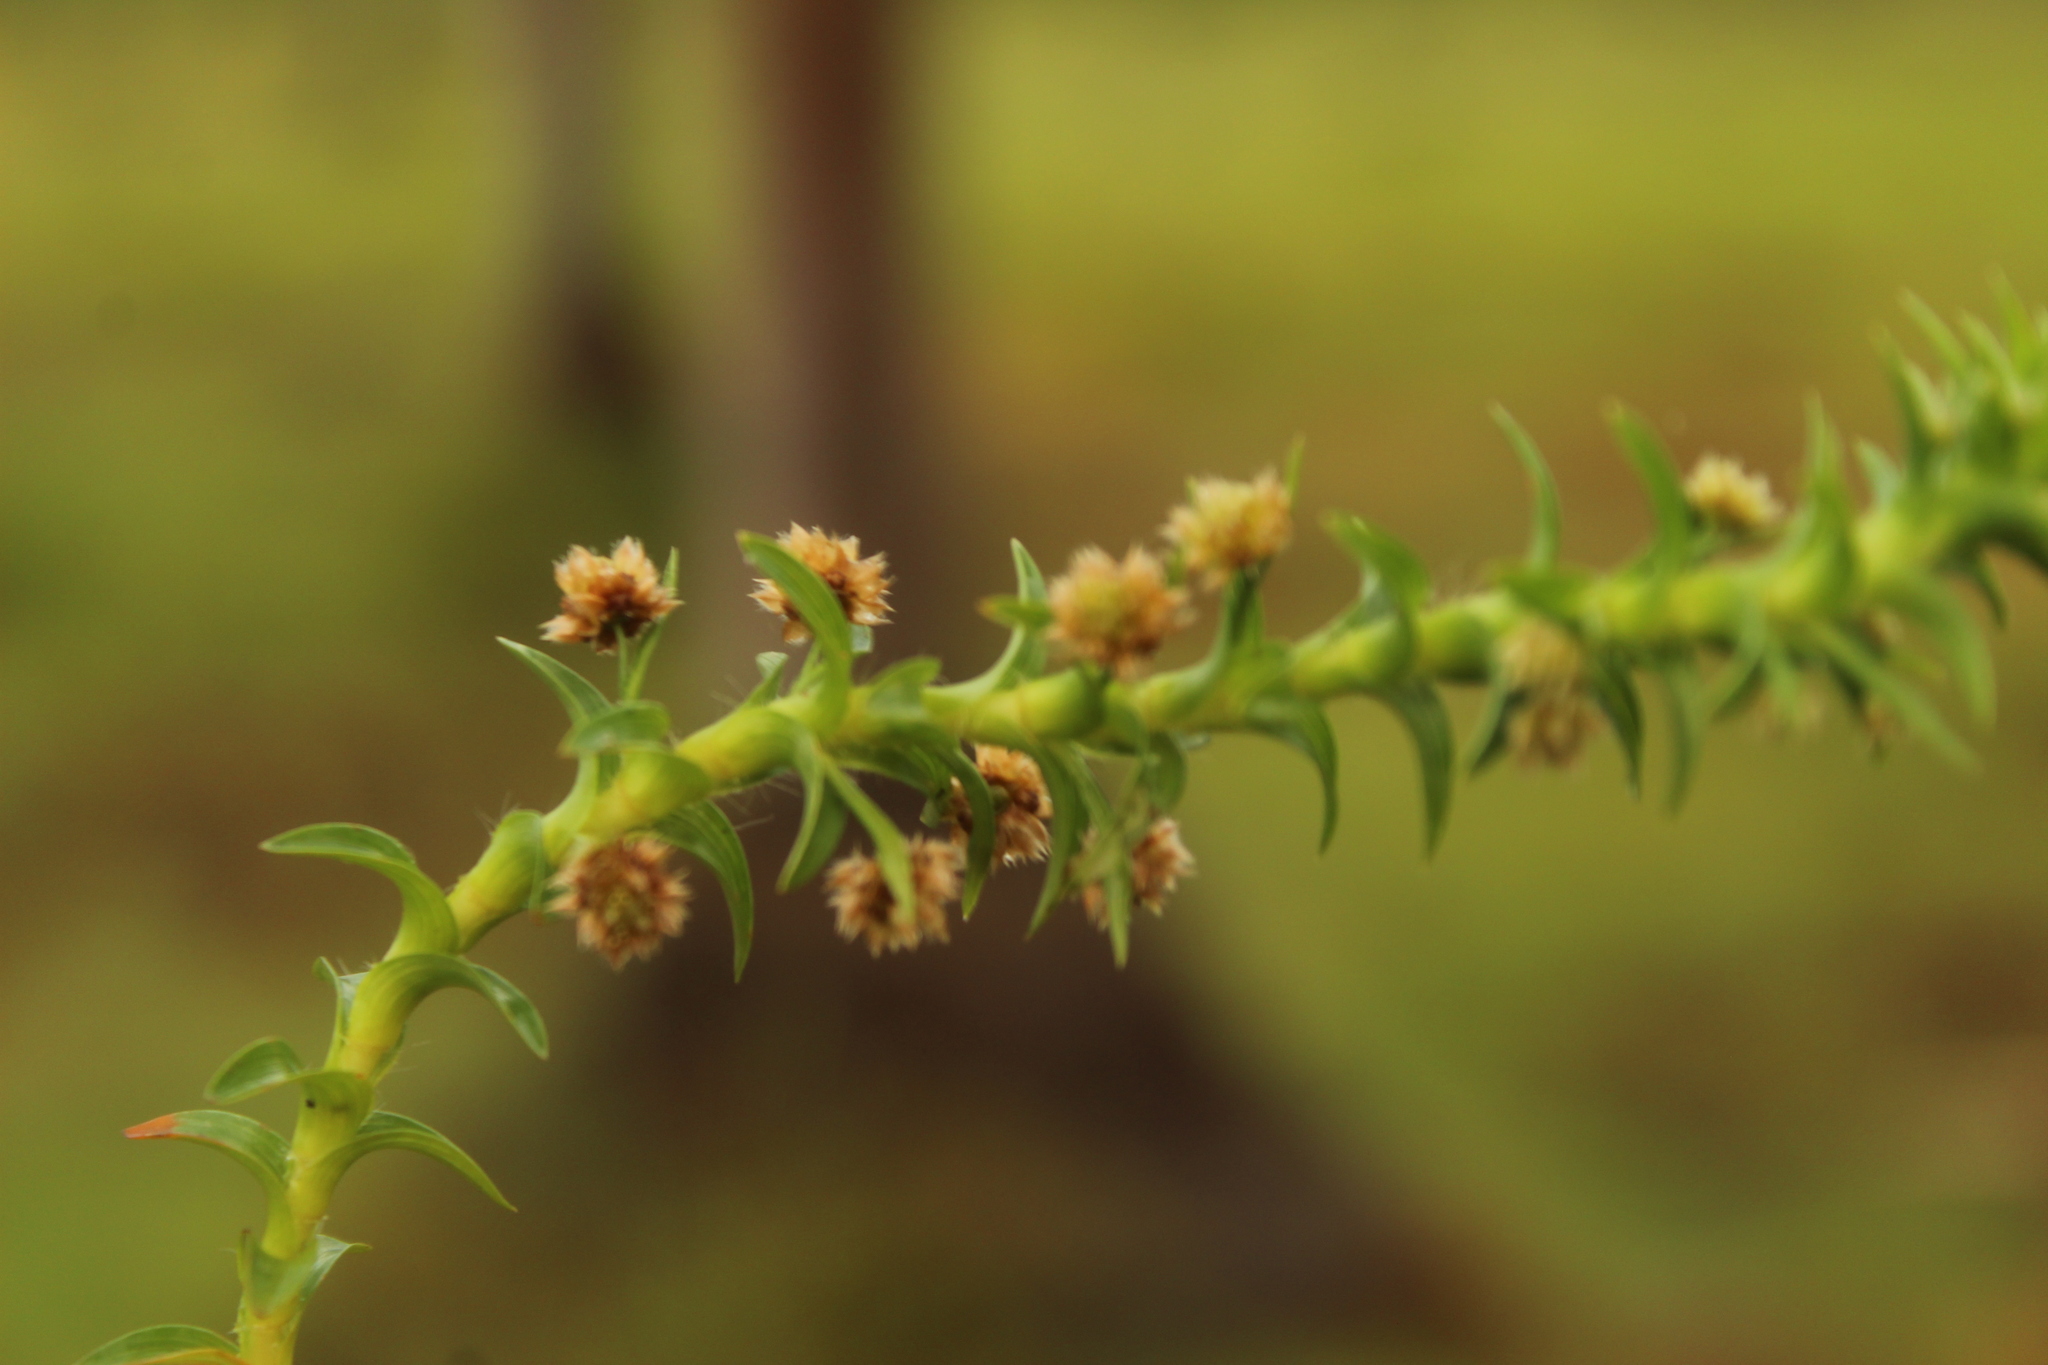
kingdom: Plantae
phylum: Tracheophyta
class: Liliopsida
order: Poales
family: Eriocaulaceae
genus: Paepalanthus
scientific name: Paepalanthus fluviatilis
